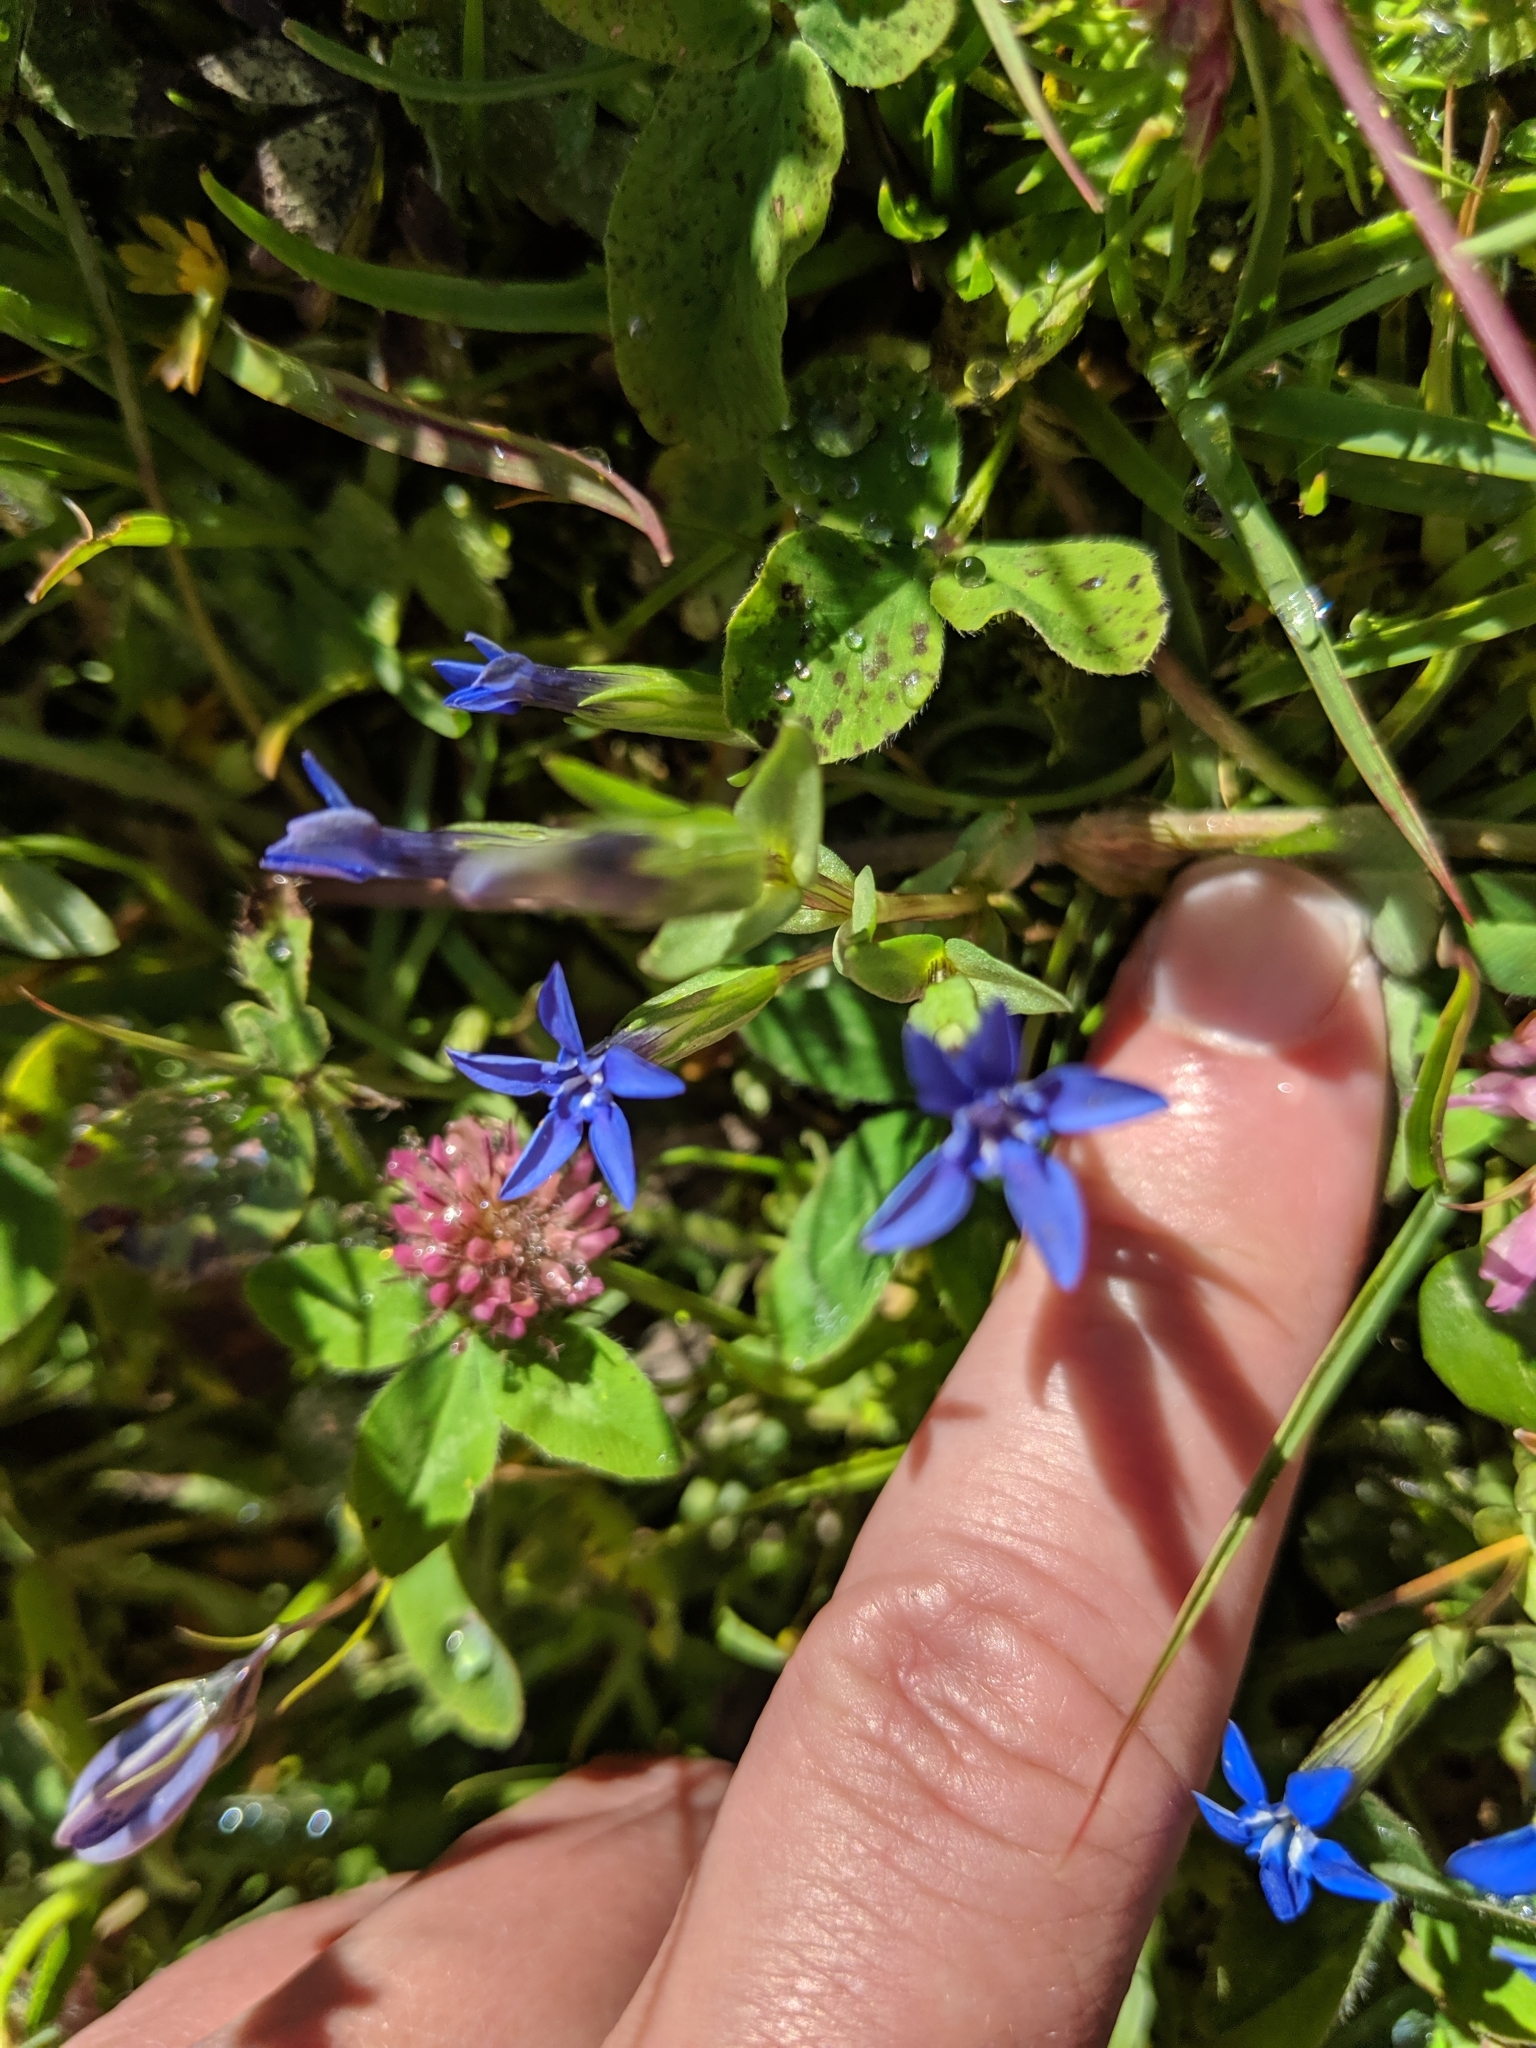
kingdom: Plantae
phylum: Tracheophyta
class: Magnoliopsida
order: Gentianales
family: Gentianaceae
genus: Gentiana
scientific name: Gentiana nivalis
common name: Alpine gentian
